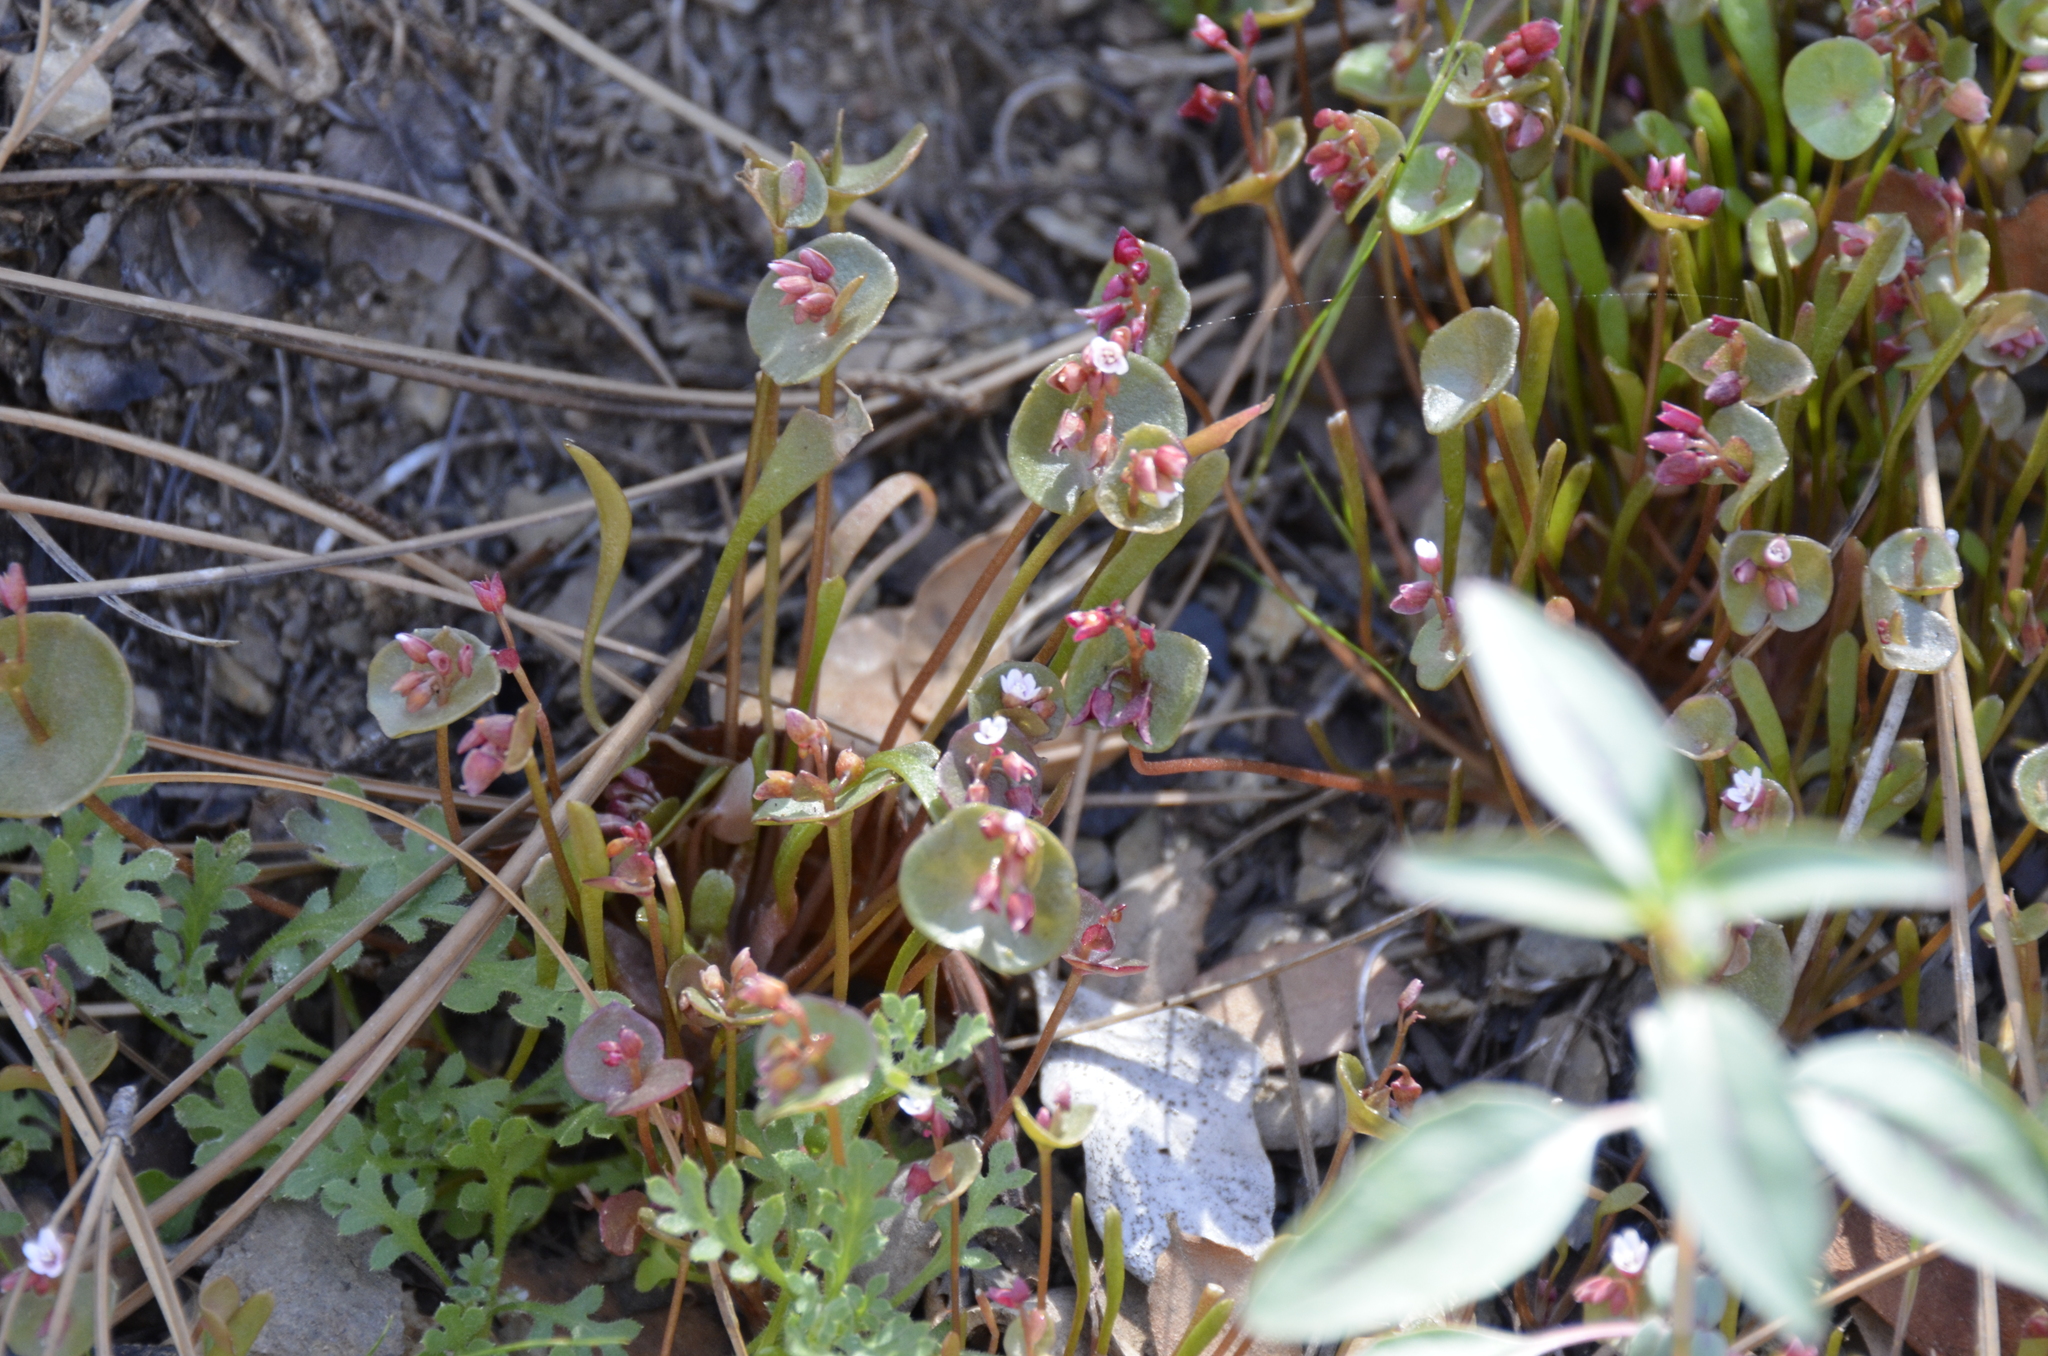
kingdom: Plantae
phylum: Tracheophyta
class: Magnoliopsida
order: Caryophyllales
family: Montiaceae
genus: Claytonia
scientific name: Claytonia parviflora
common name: Indian-lettuce
